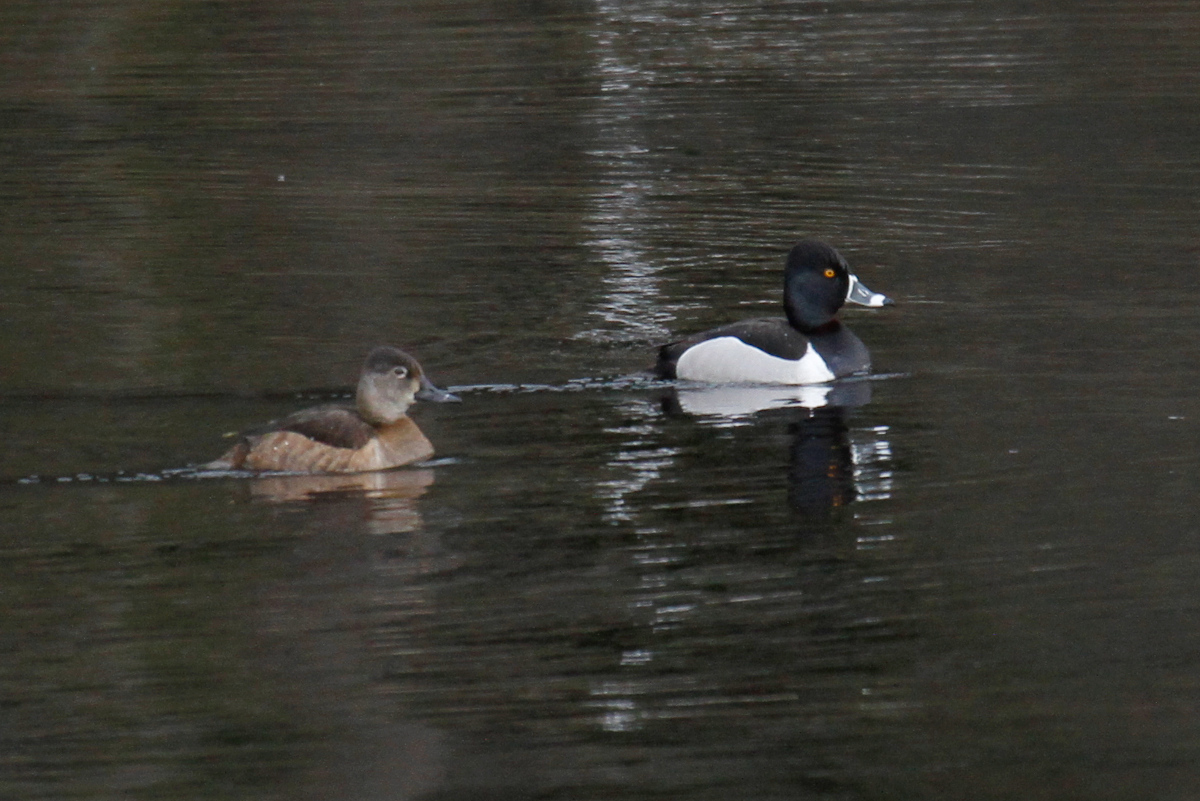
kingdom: Animalia
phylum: Chordata
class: Aves
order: Anseriformes
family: Anatidae
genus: Aythya
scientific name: Aythya collaris
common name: Ring-necked duck
